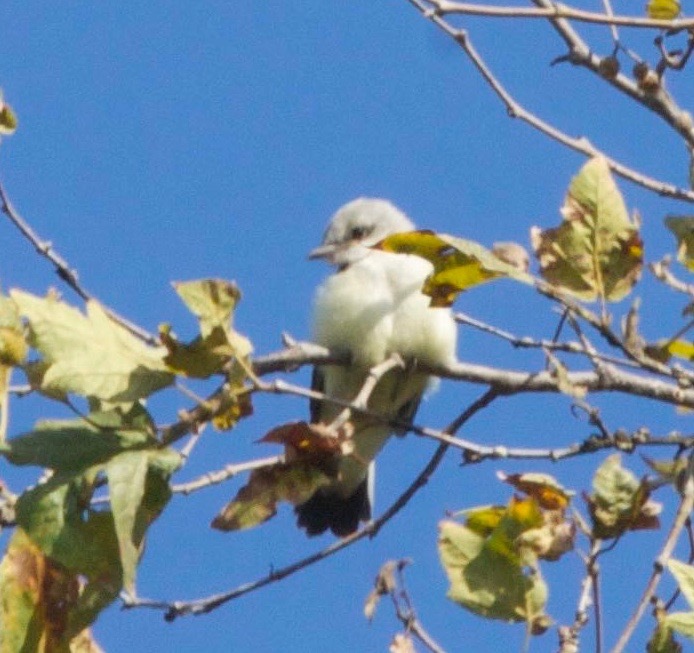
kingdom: Animalia
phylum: Chordata
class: Aves
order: Passeriformes
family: Tyrannidae
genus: Tyrannus
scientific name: Tyrannus
